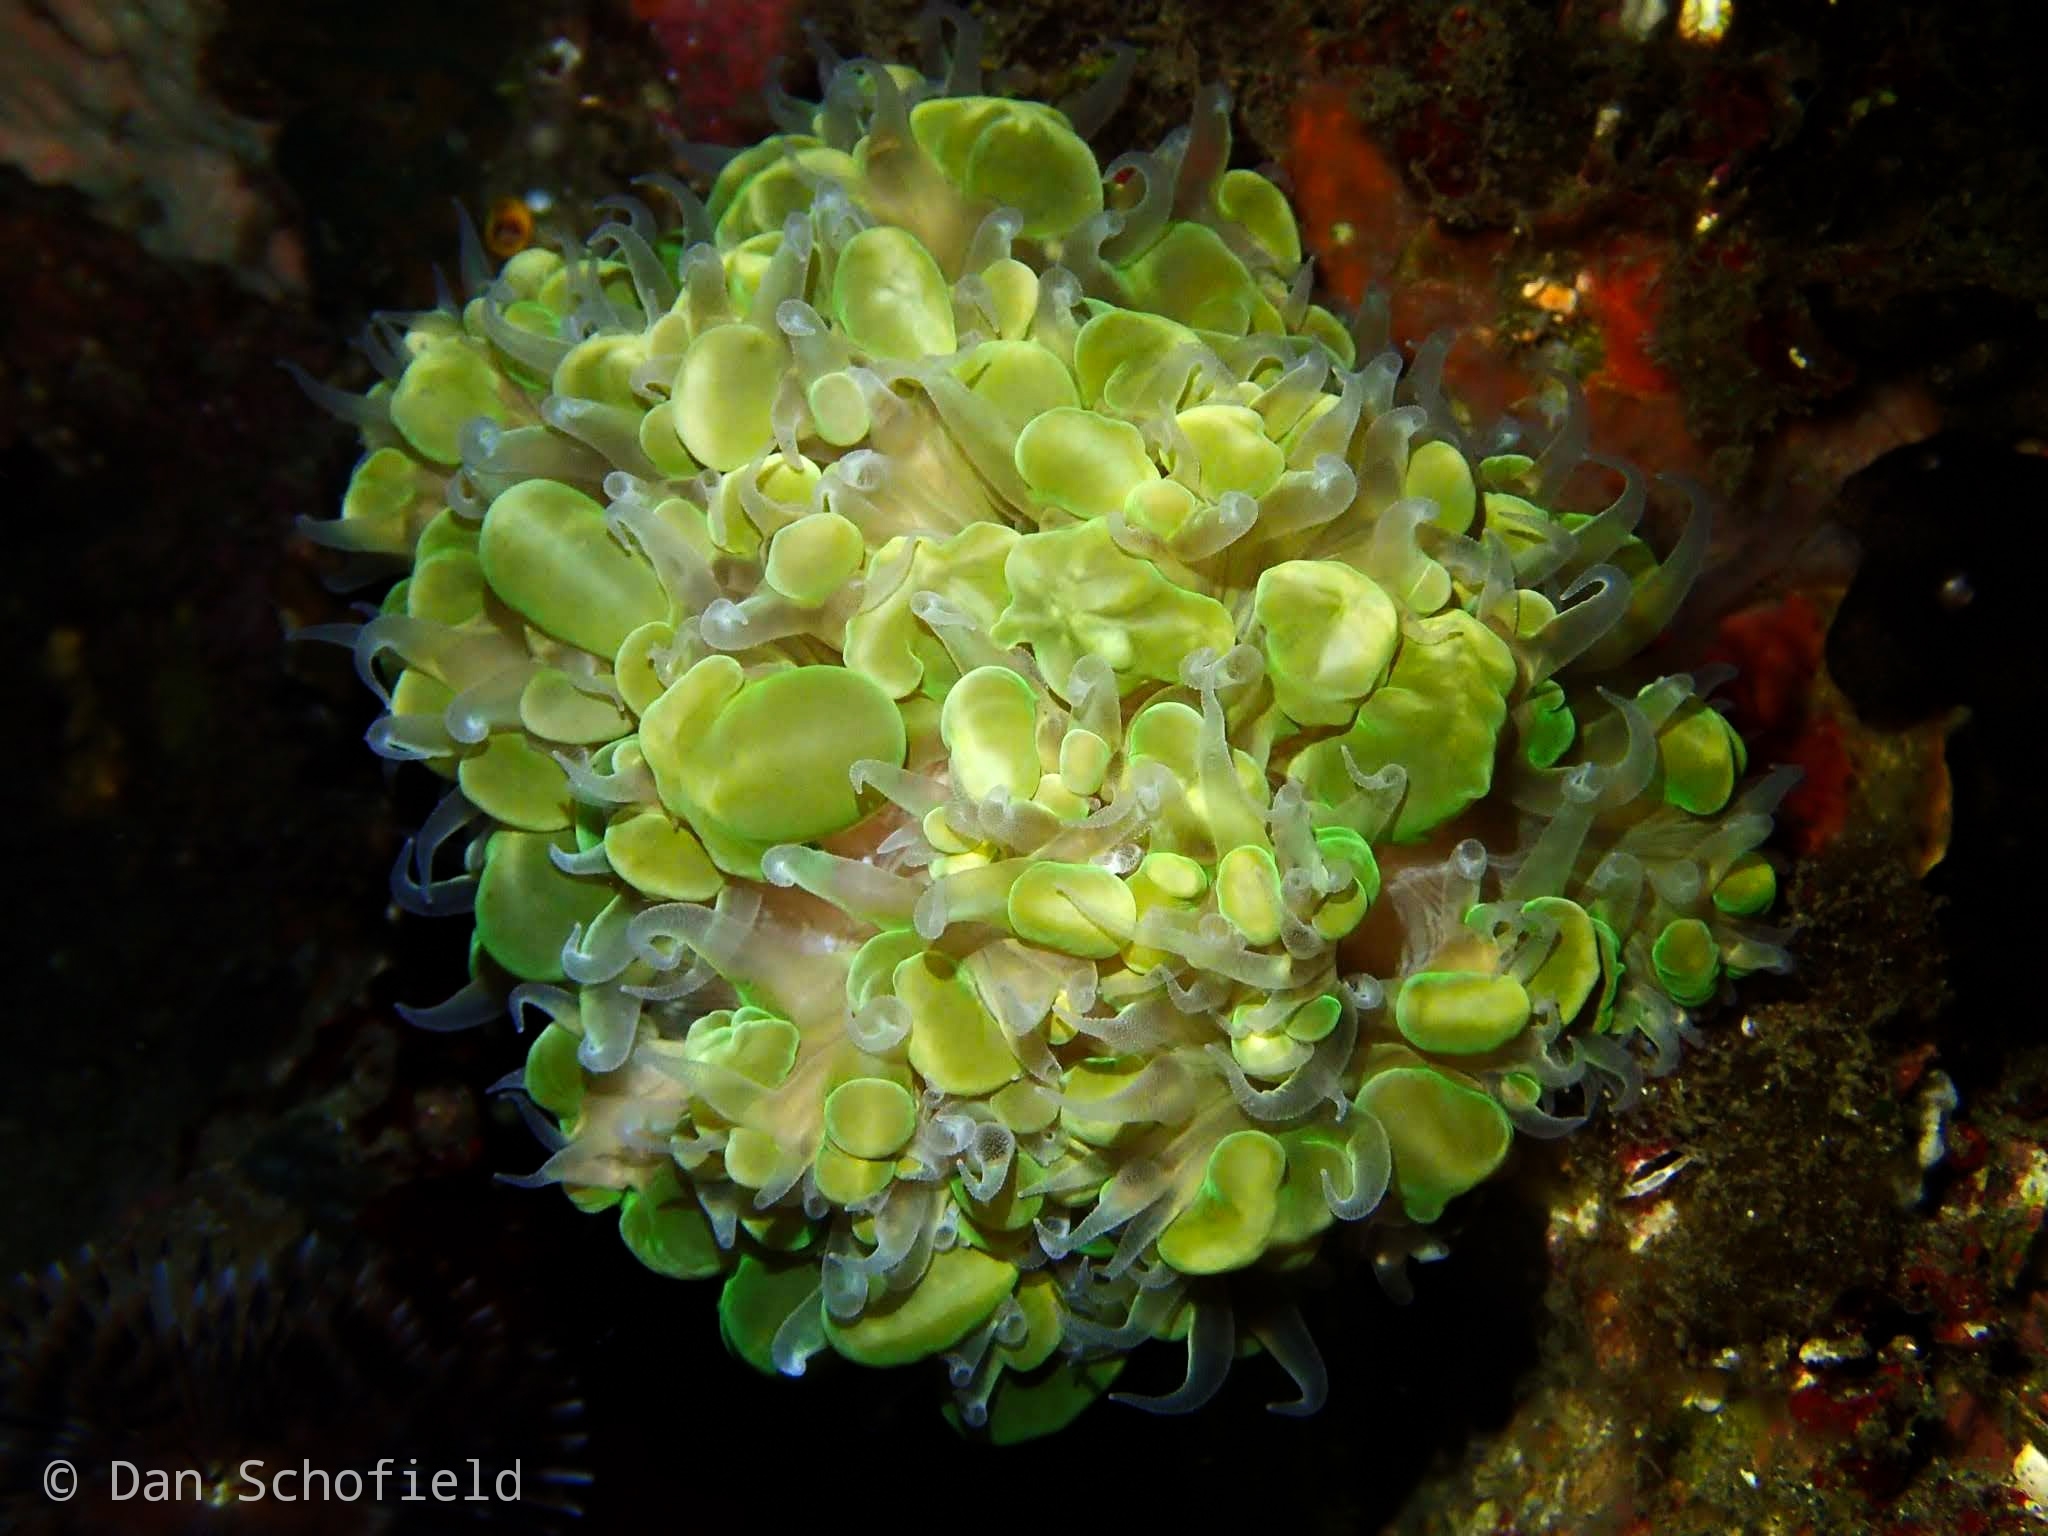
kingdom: Animalia
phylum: Cnidaria
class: Anthozoa
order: Scleractinia
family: Plerogyridae
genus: Plerogyra
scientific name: Plerogyra sinuosa
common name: Bubble coral
